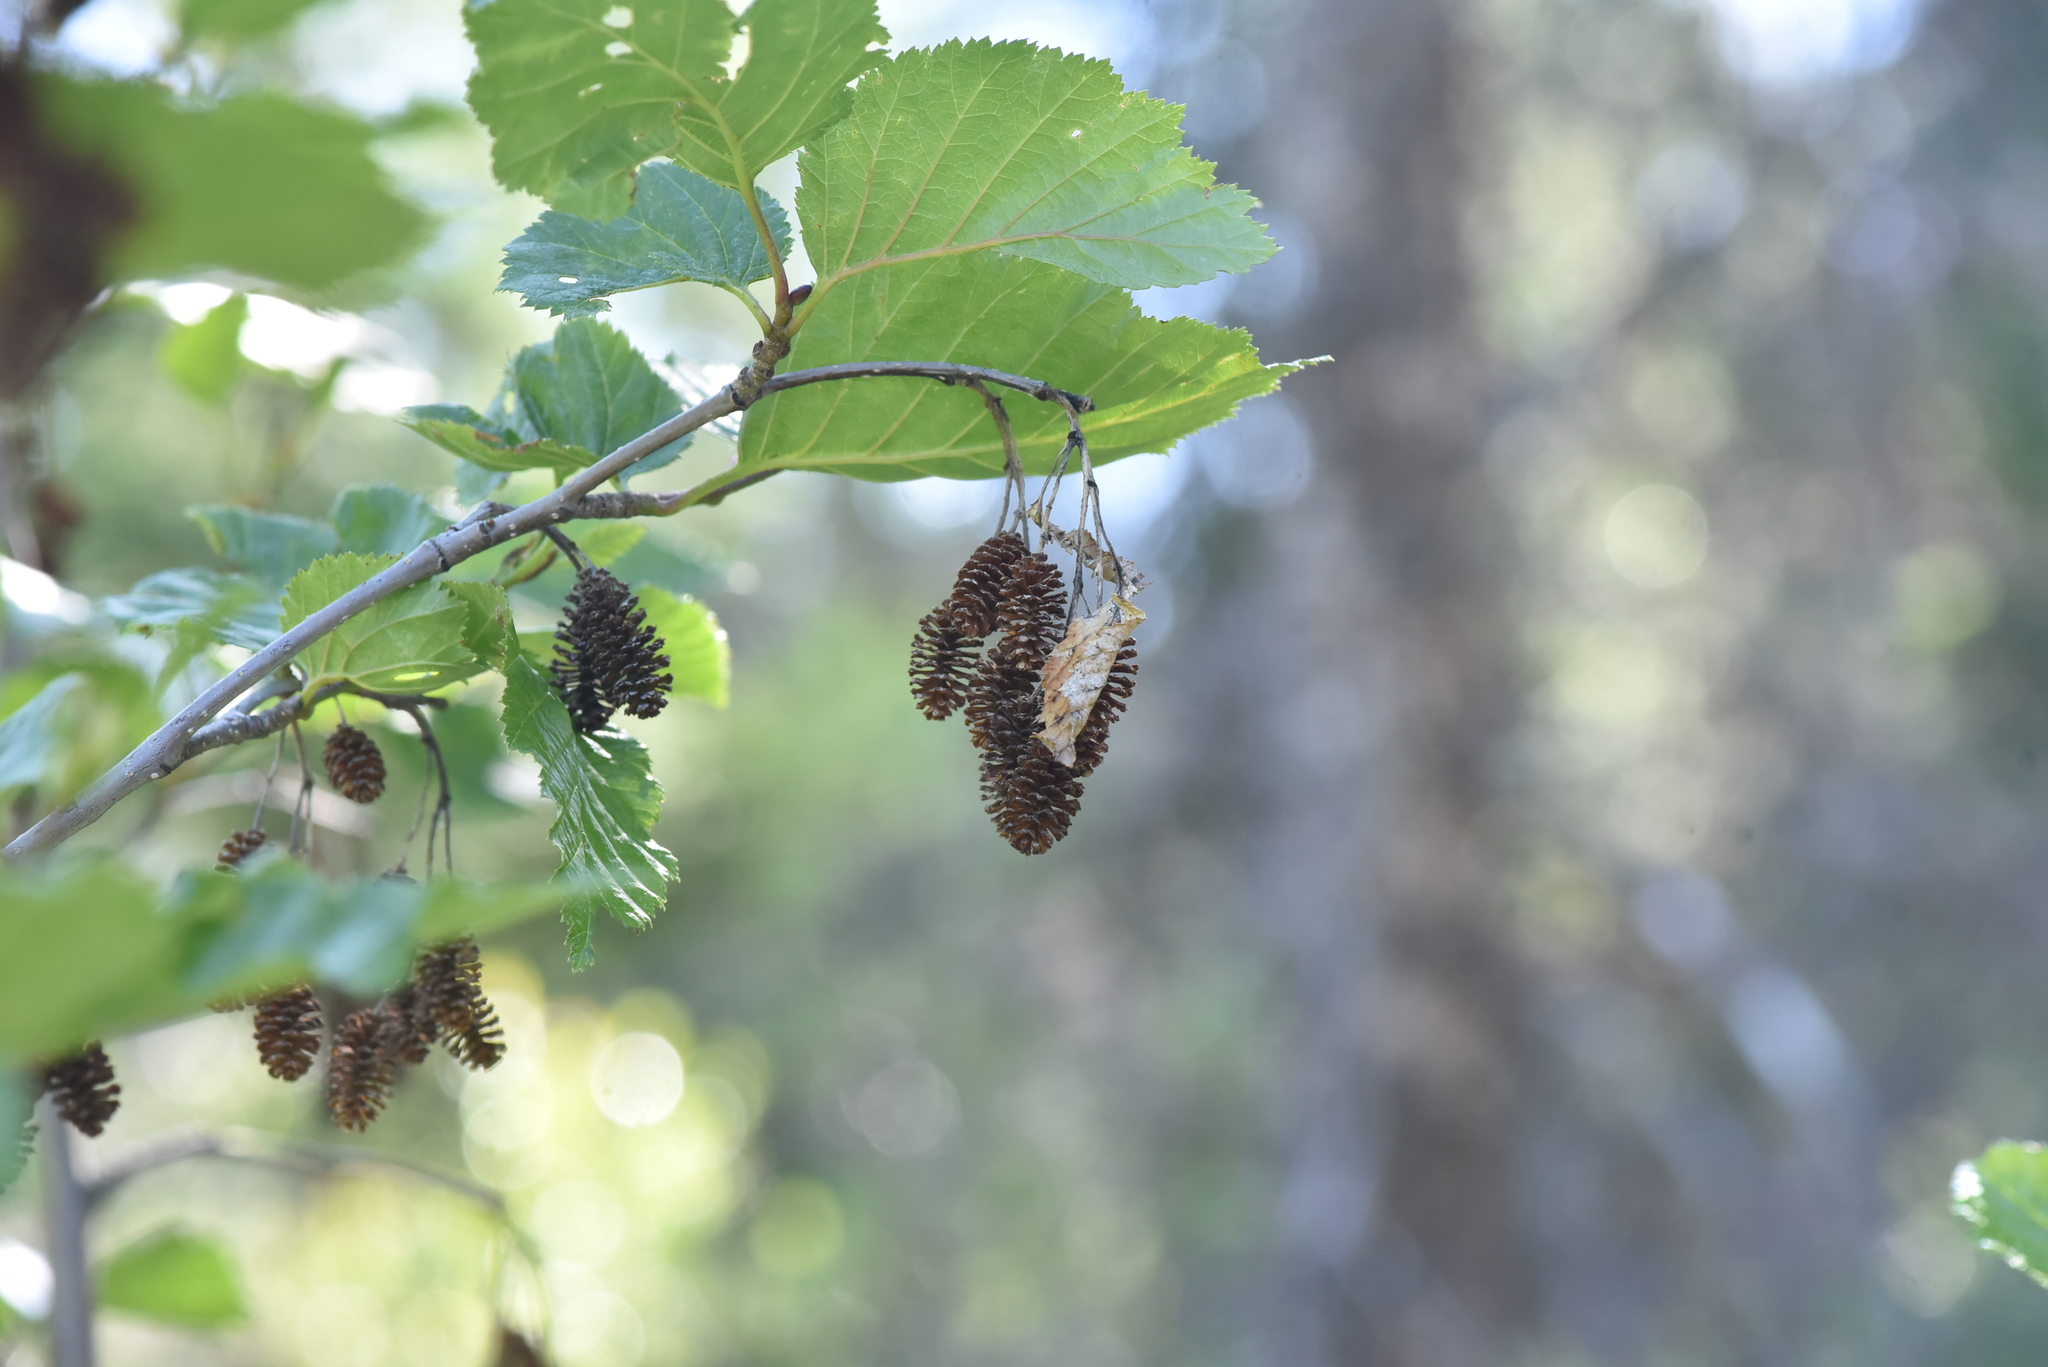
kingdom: Plantae
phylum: Tracheophyta
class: Magnoliopsida
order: Fagales
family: Betulaceae
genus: Alnus
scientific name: Alnus alnobetula
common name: Green alder
